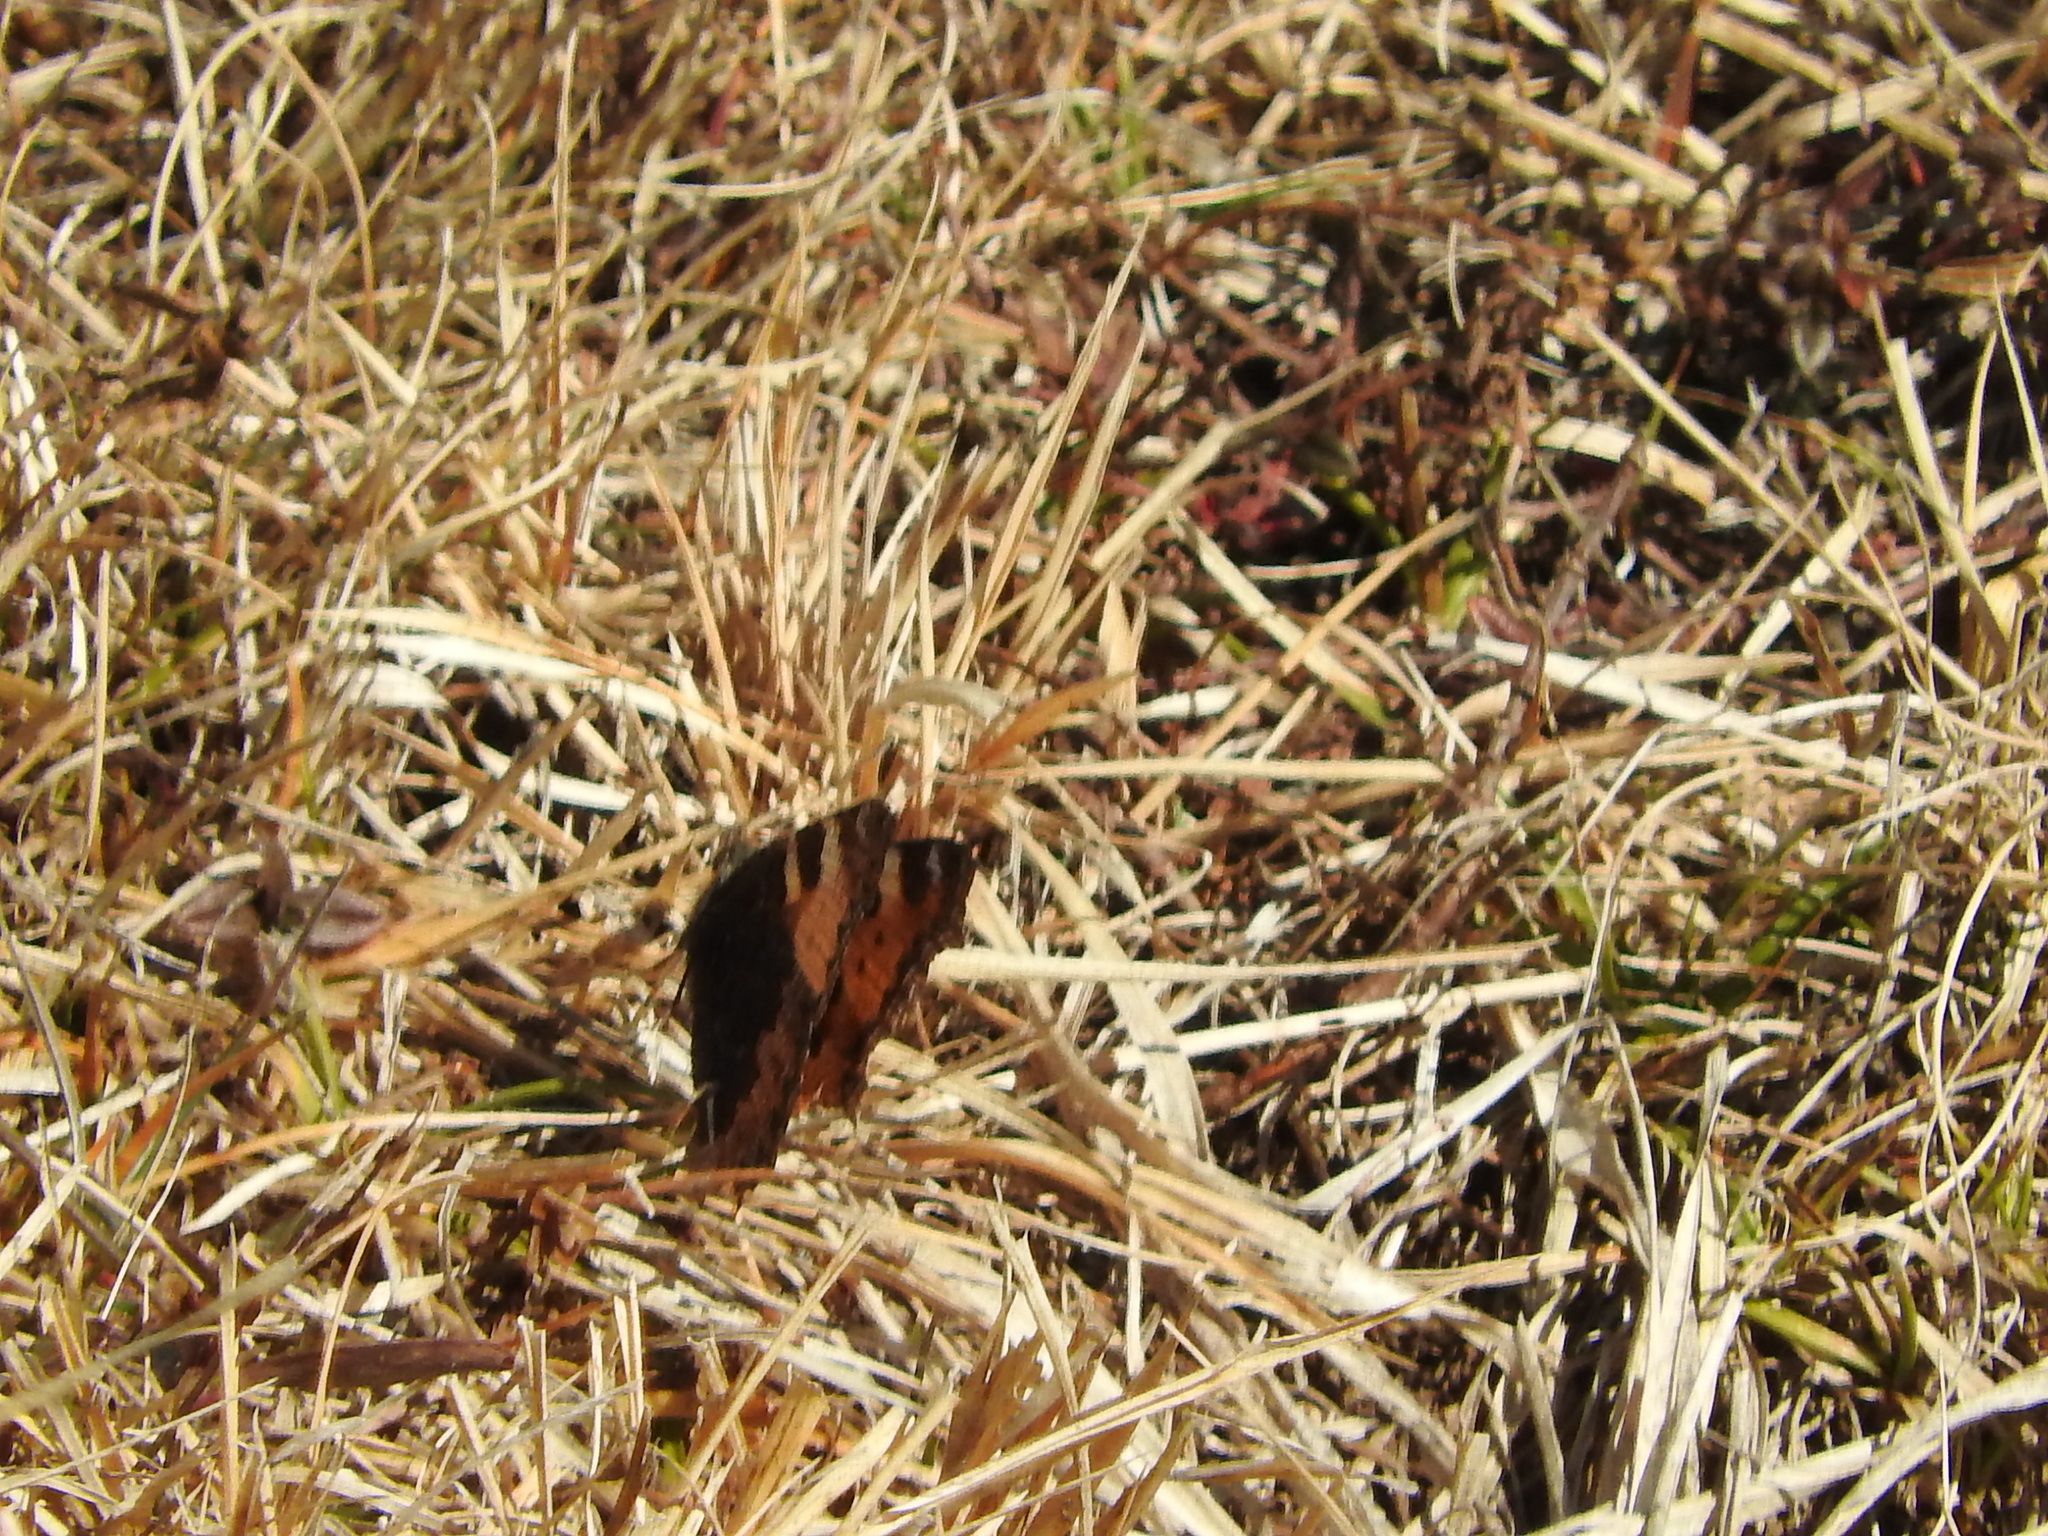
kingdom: Animalia
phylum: Arthropoda
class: Insecta
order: Lepidoptera
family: Nymphalidae
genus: Aglais
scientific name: Aglais urticae
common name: Small tortoiseshell
